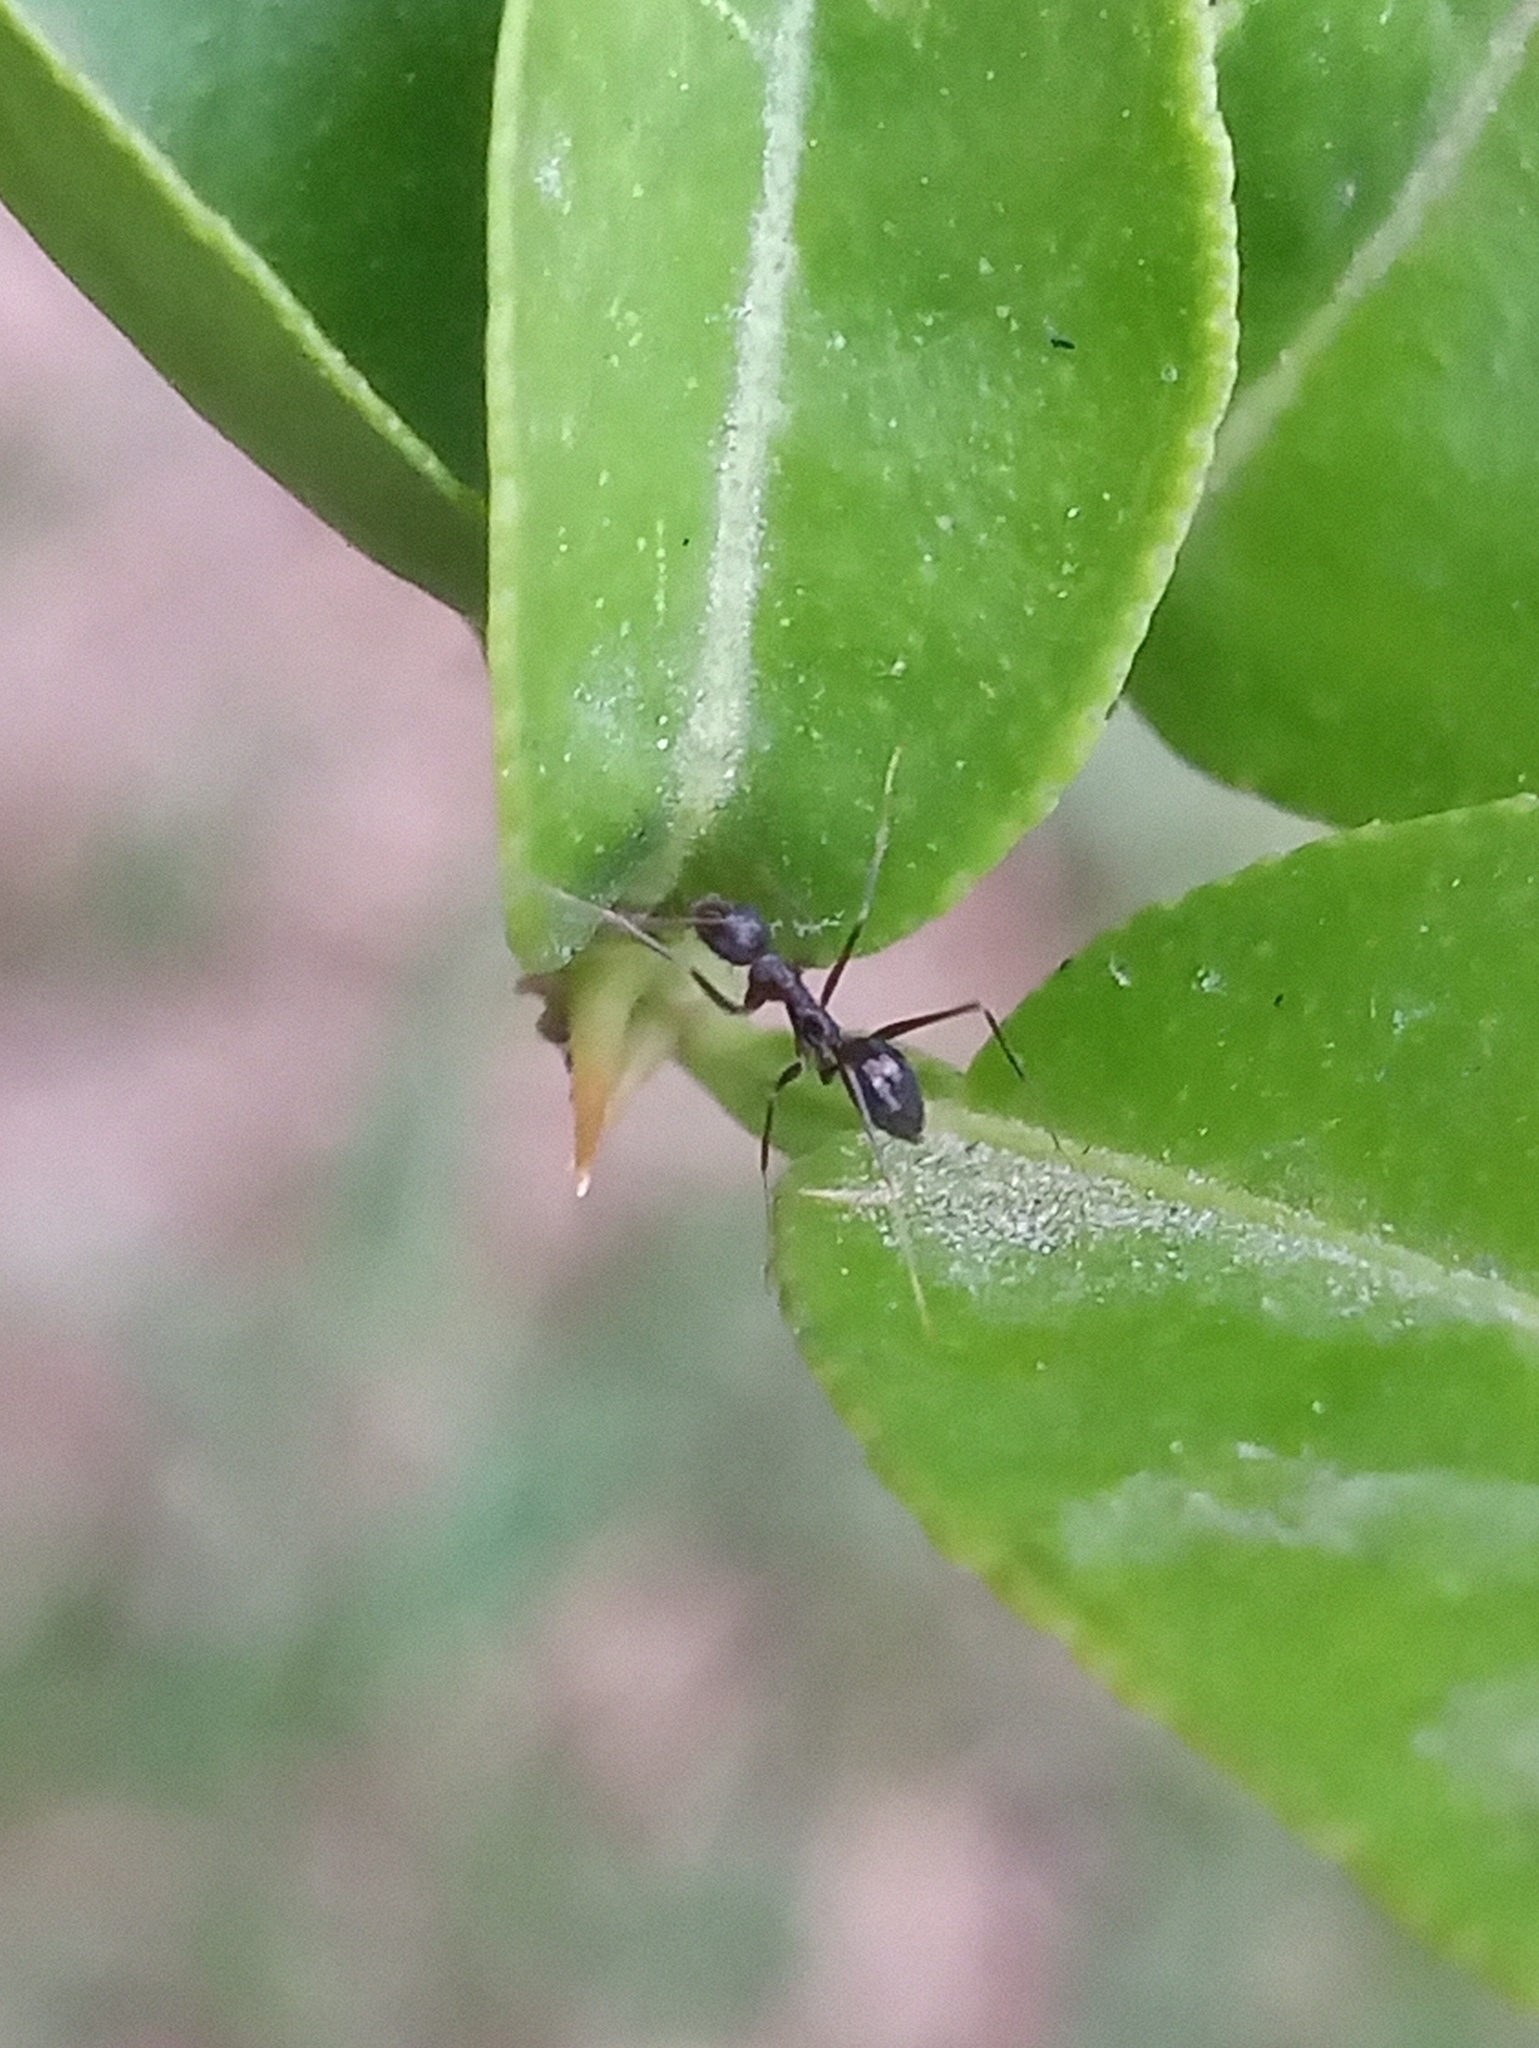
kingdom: Animalia
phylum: Arthropoda
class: Insecta
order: Hymenoptera
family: Formicidae
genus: Paratrechina
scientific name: Paratrechina longicornis
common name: Longhorned crazy ant
